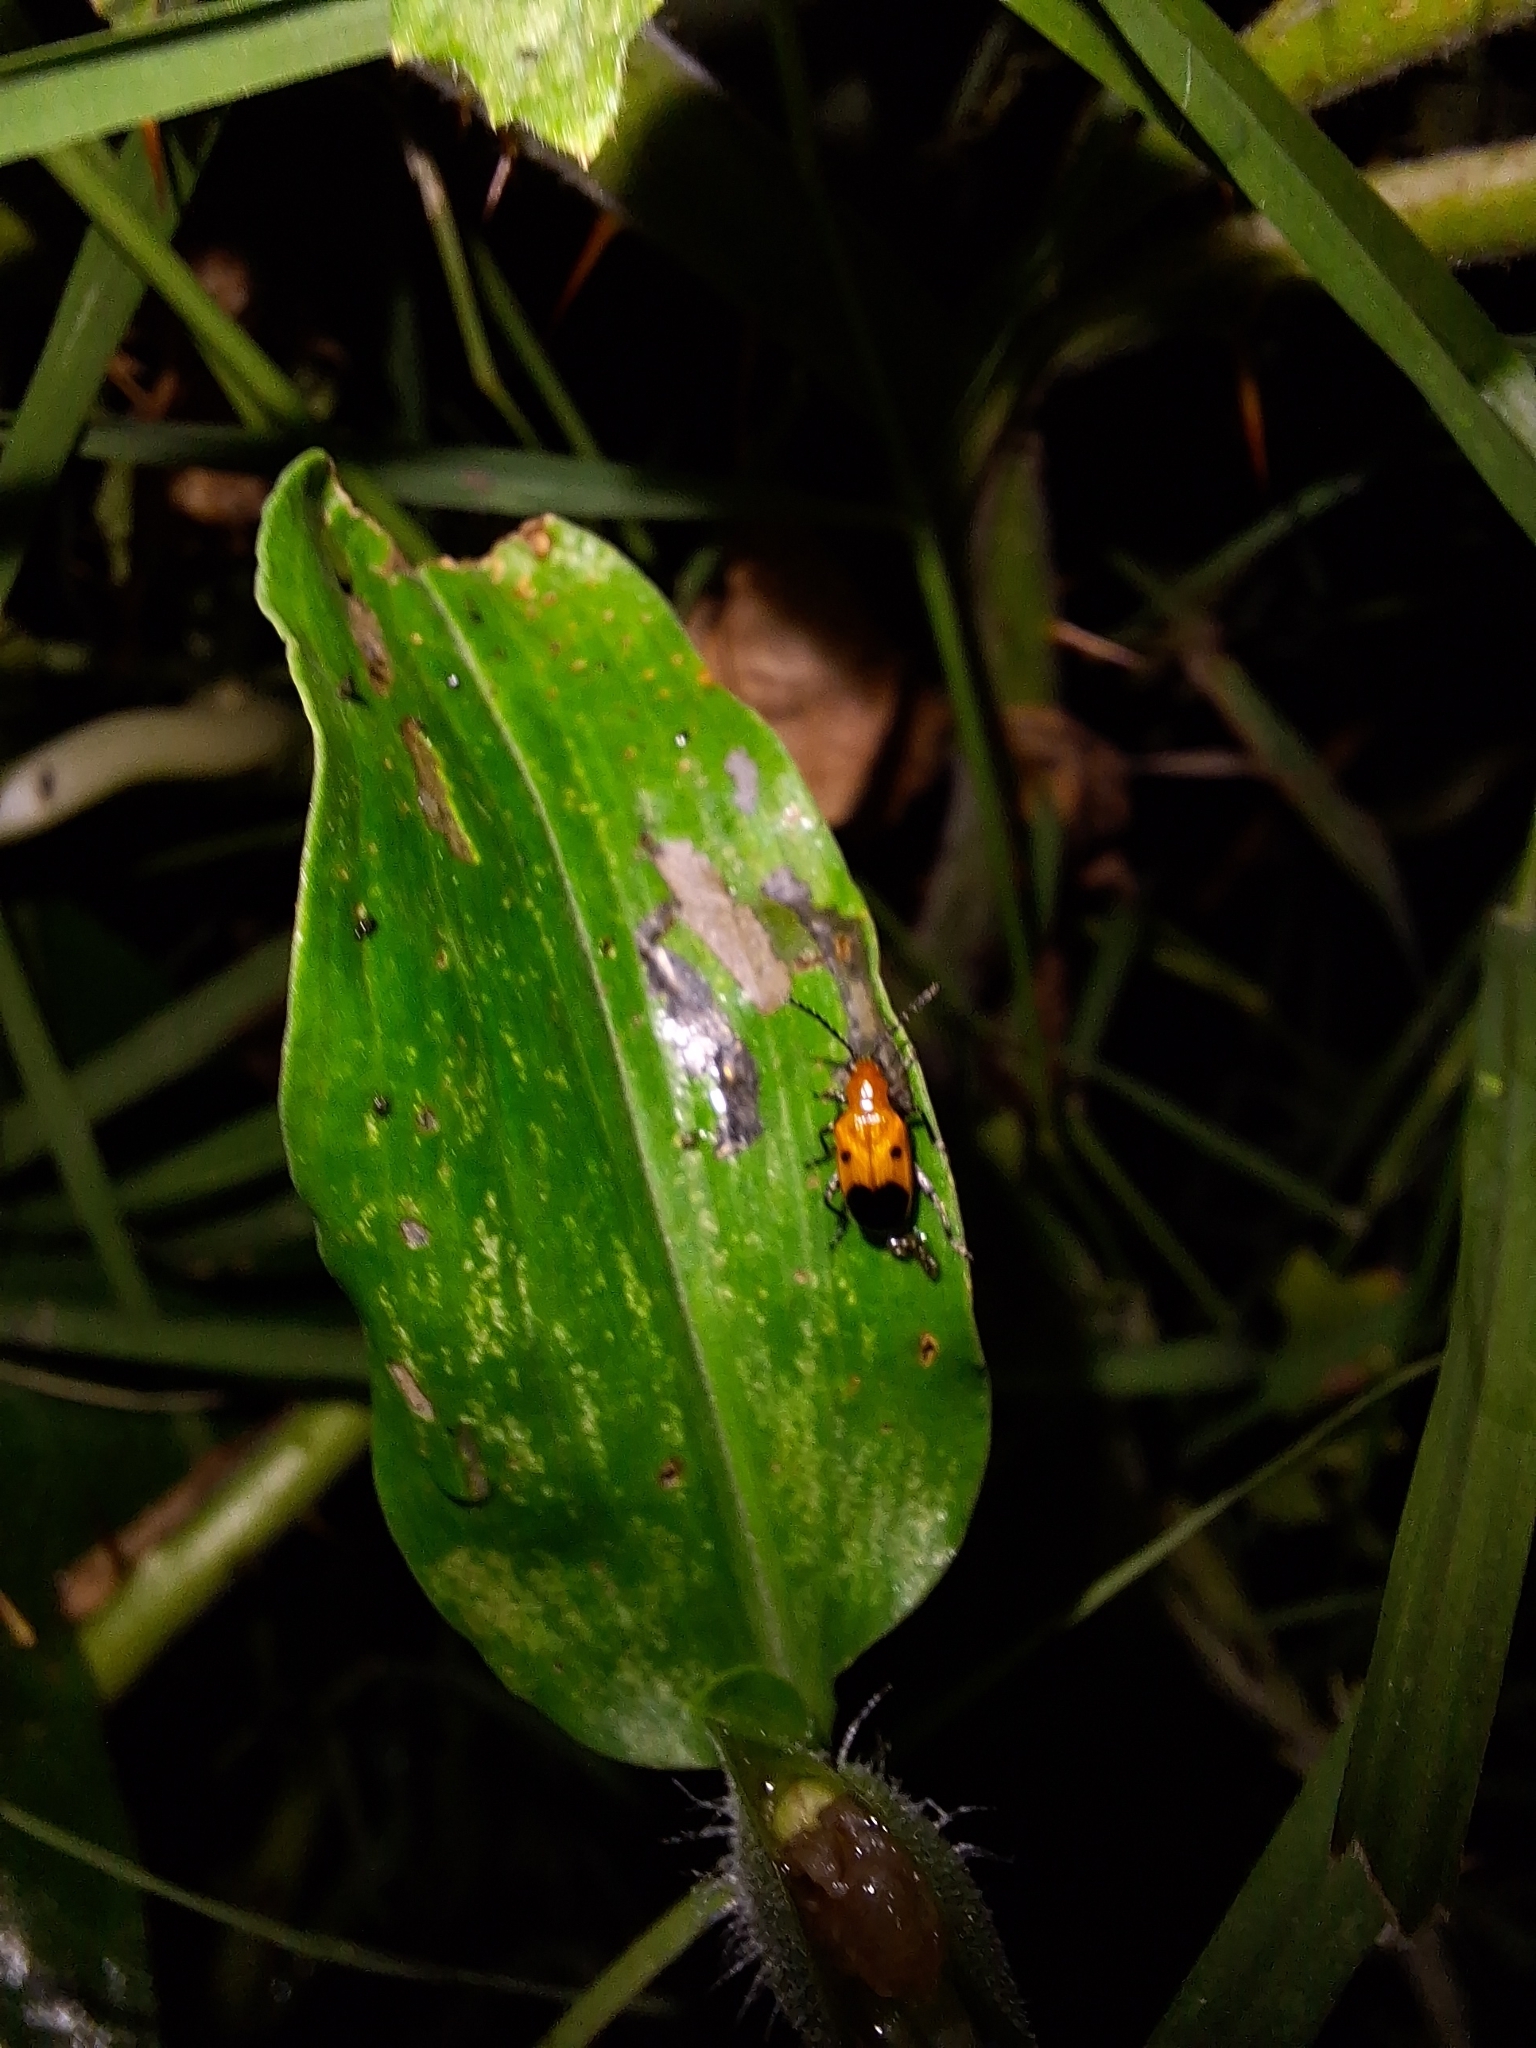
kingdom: Animalia
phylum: Arthropoda
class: Insecta
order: Coleoptera
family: Chrysomelidae
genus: Neolema
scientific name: Neolema dorsalis
